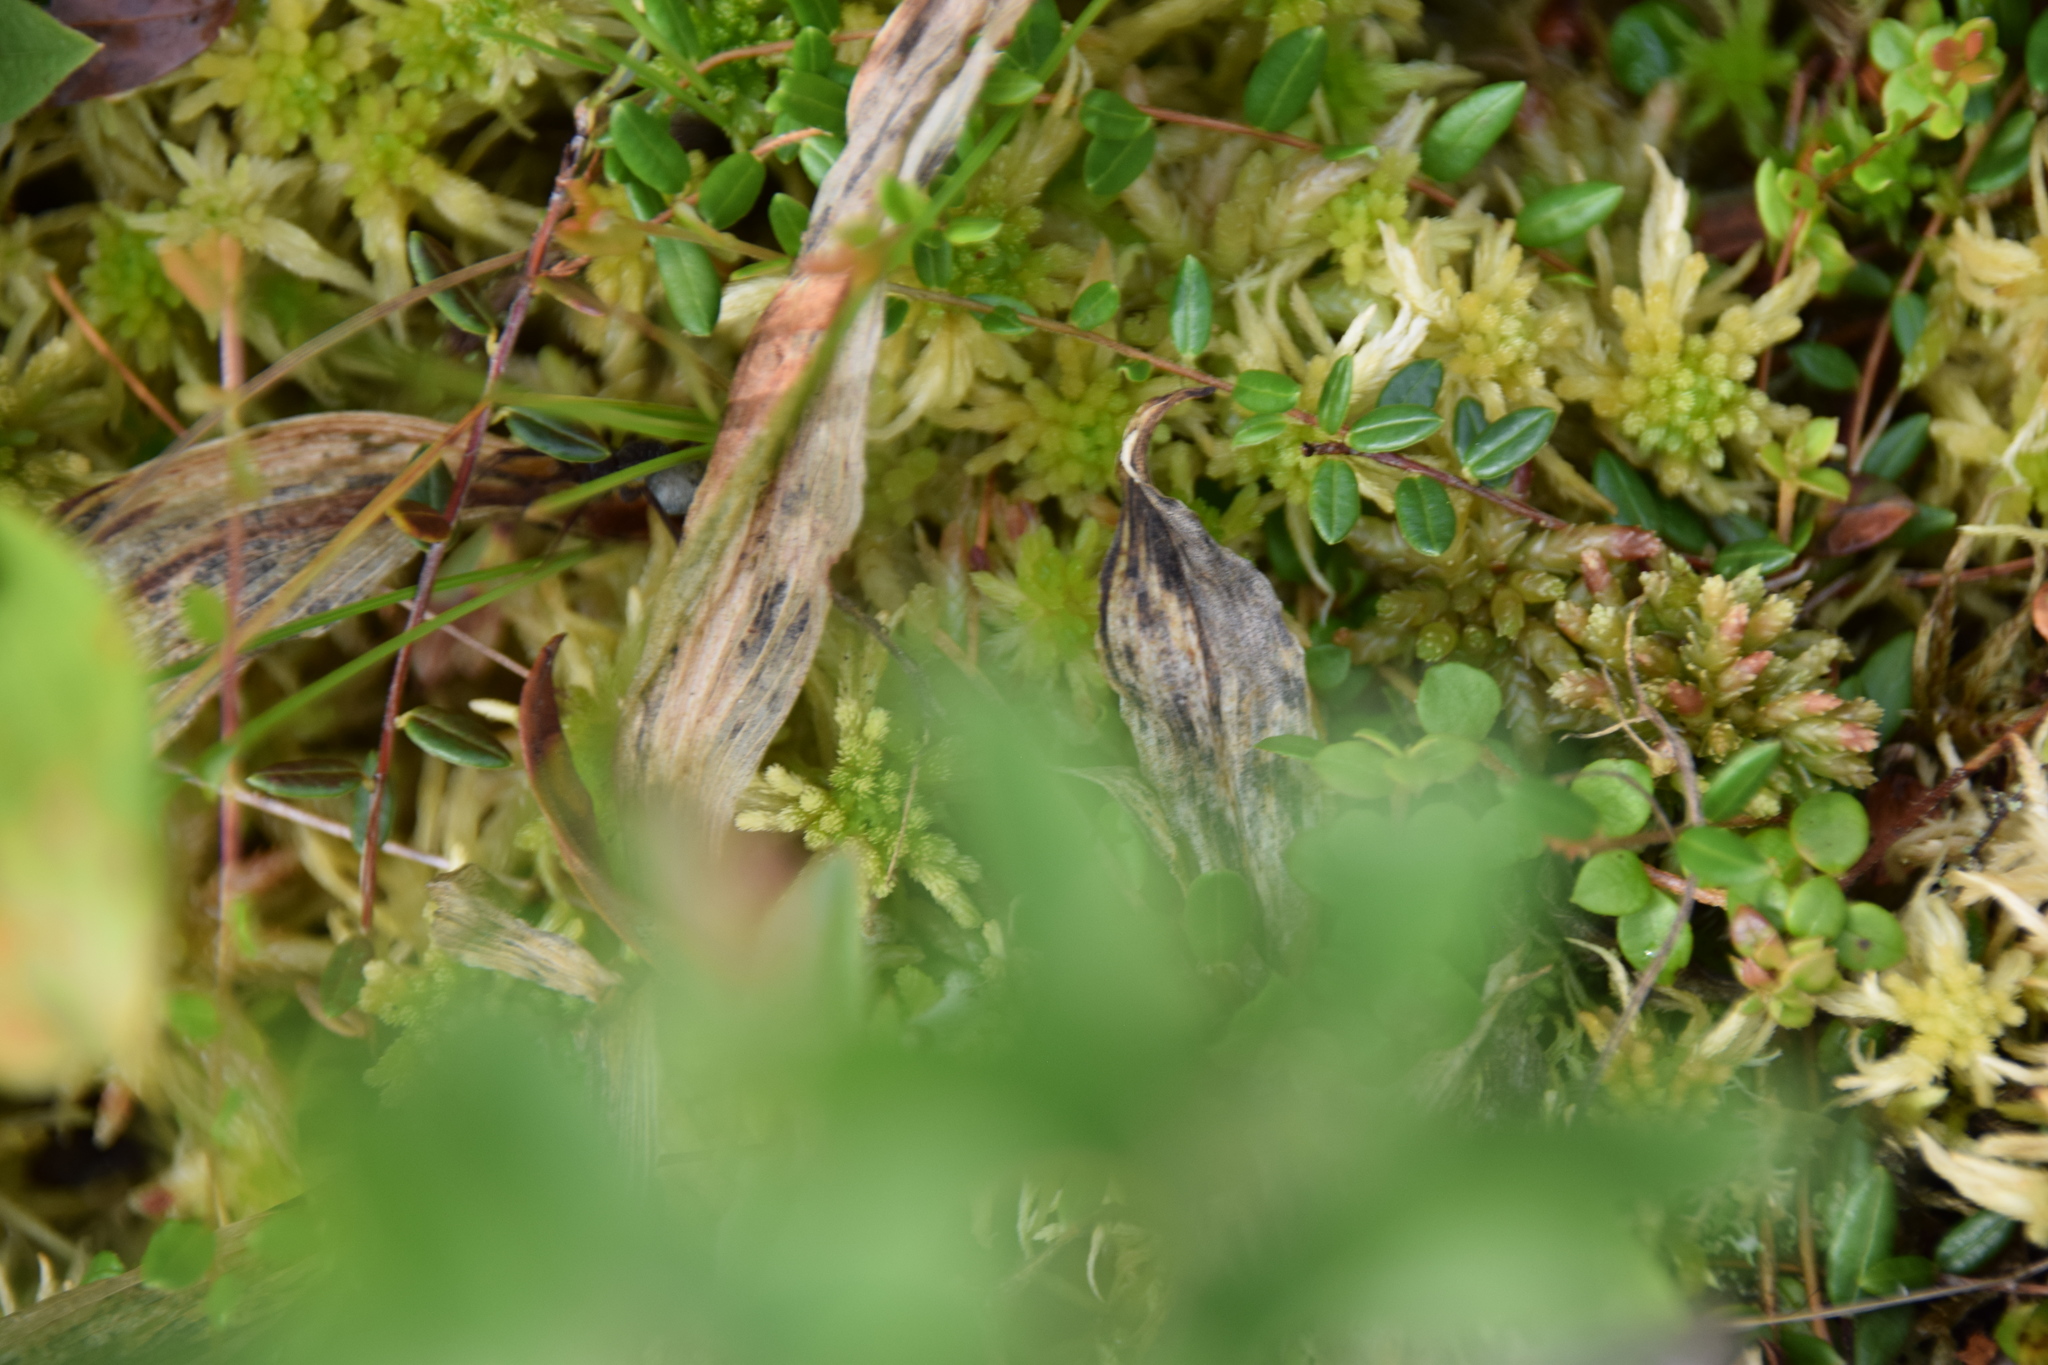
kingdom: Plantae
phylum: Tracheophyta
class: Magnoliopsida
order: Ericales
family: Ericaceae
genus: Vaccinium
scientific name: Vaccinium oxycoccos
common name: Cranberry
